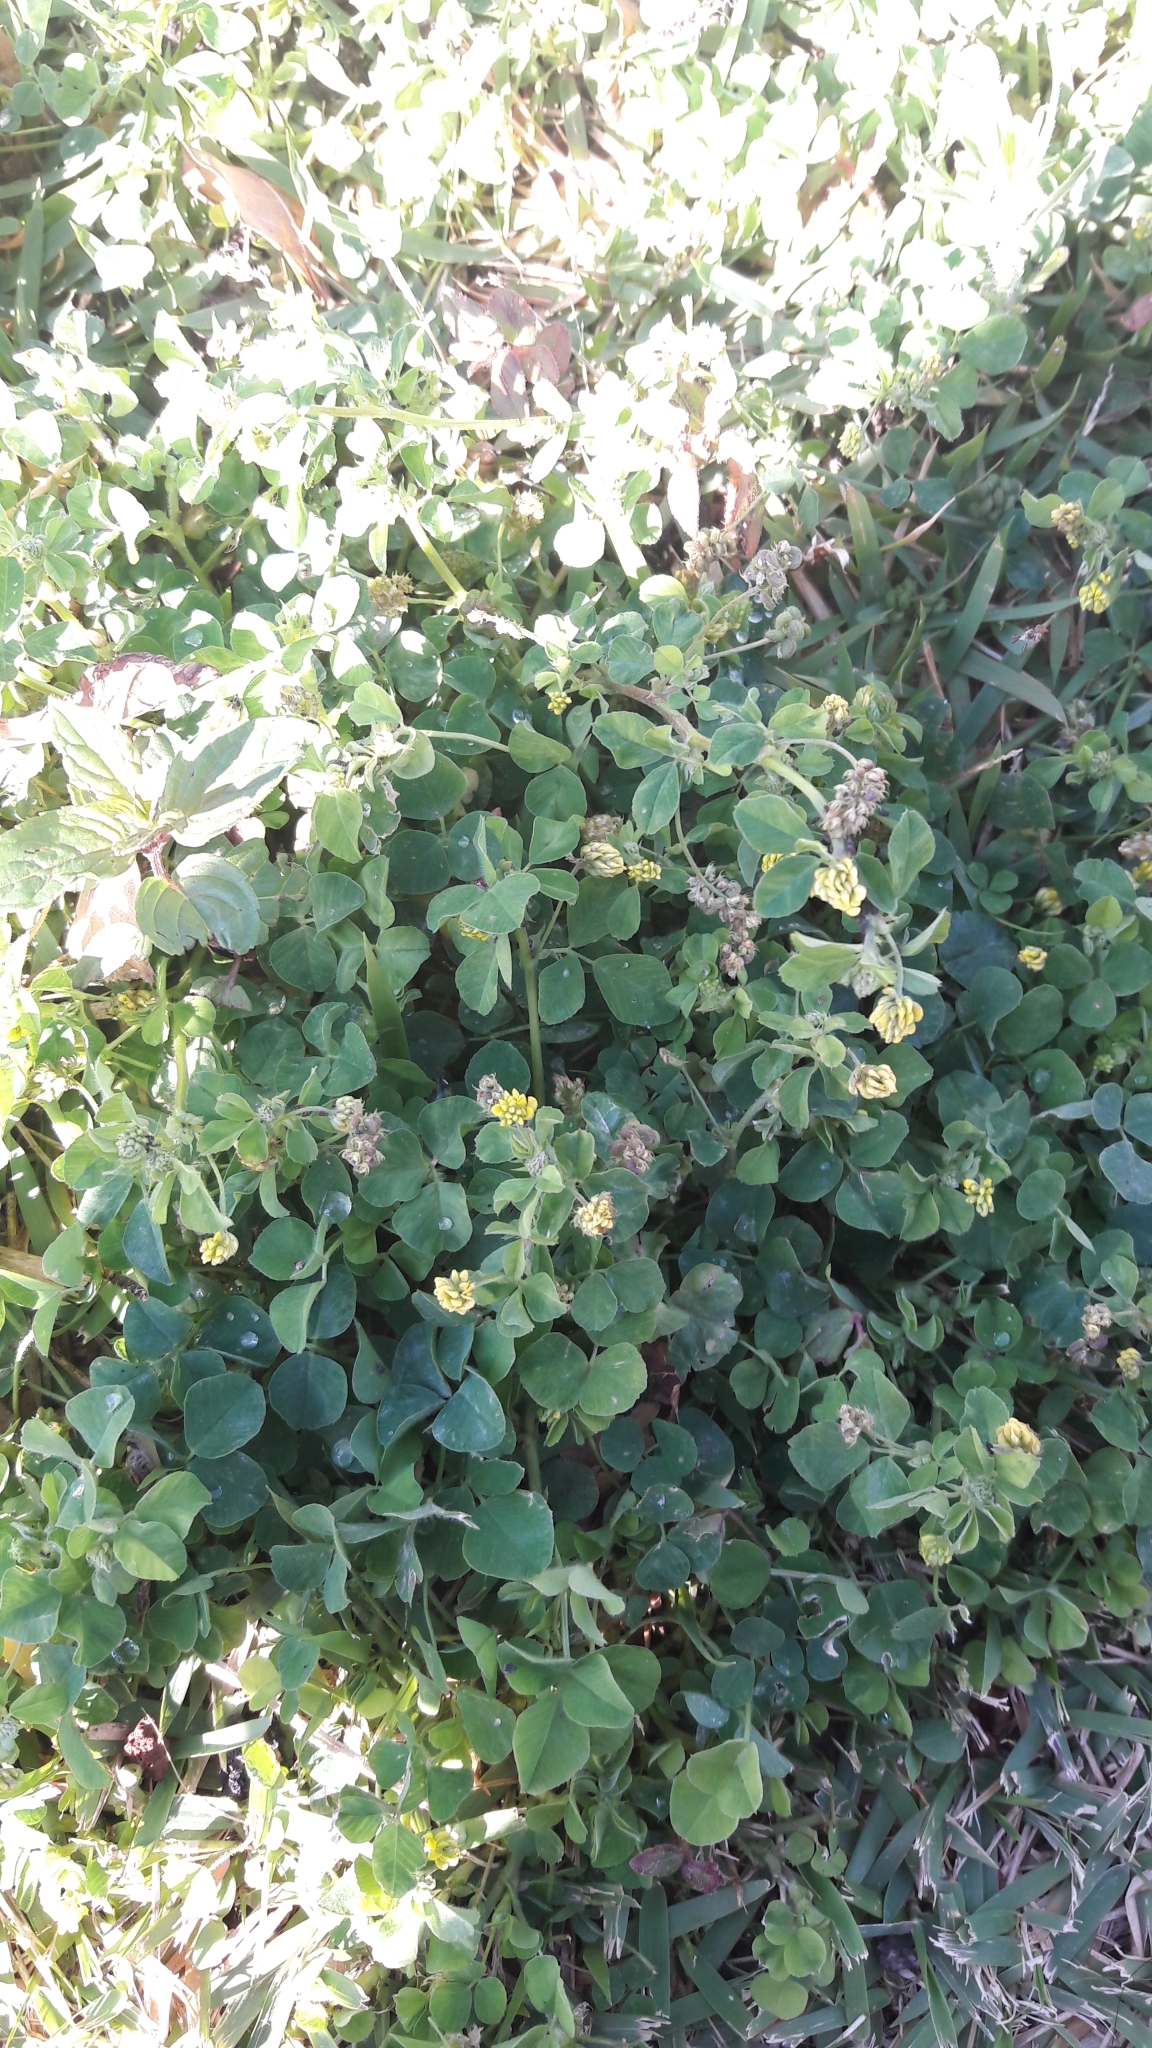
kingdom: Plantae
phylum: Tracheophyta
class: Magnoliopsida
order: Fabales
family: Fabaceae
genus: Medicago
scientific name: Medicago lupulina
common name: Black medick
